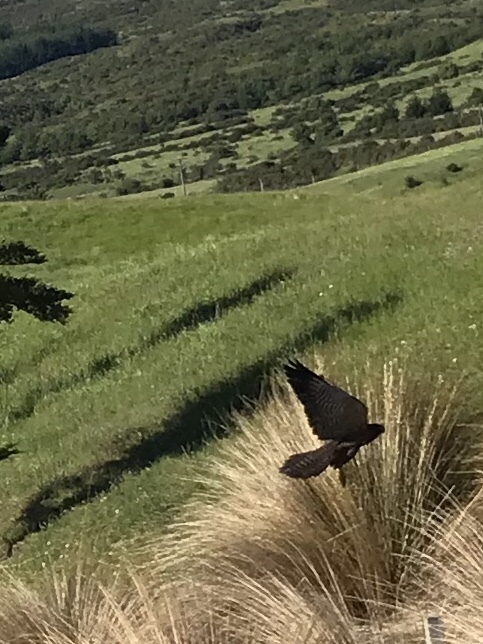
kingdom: Animalia
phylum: Chordata
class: Aves
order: Falconiformes
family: Falconidae
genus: Falco
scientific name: Falco novaeseelandiae
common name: New zealand falcon
